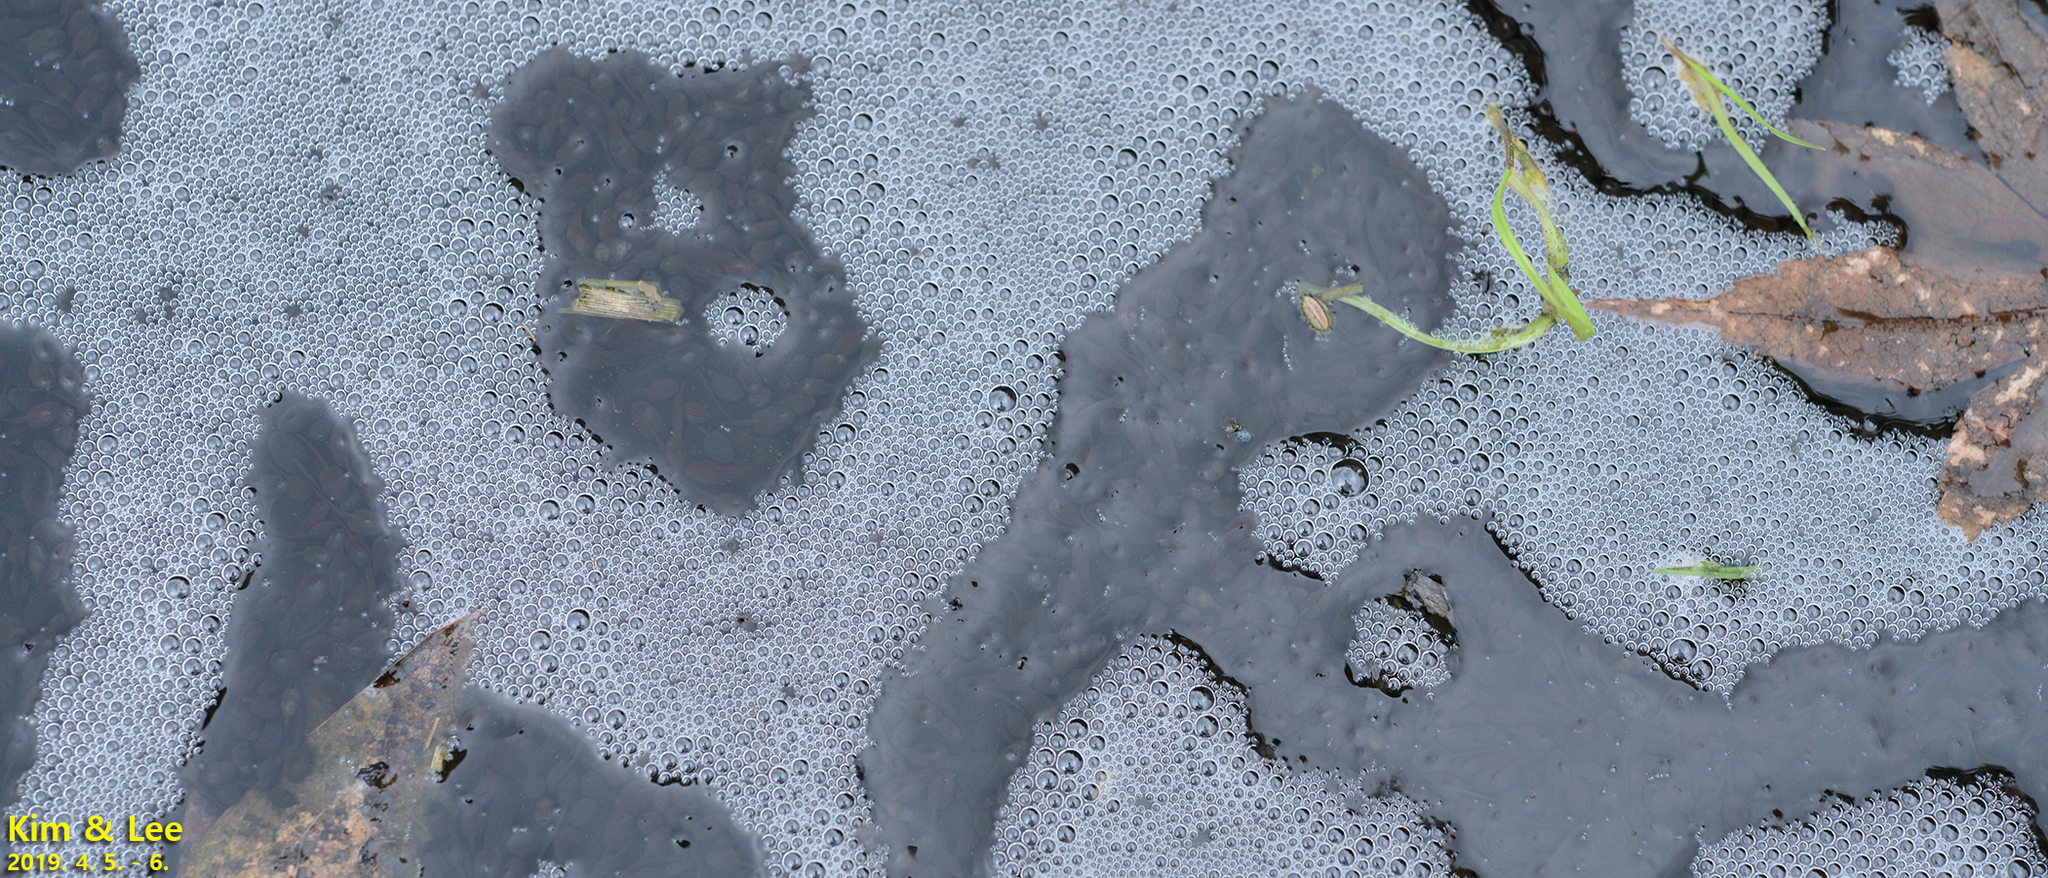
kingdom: Animalia
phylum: Chordata
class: Amphibia
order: Anura
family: Ranidae
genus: Rana
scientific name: Rana uenoi
